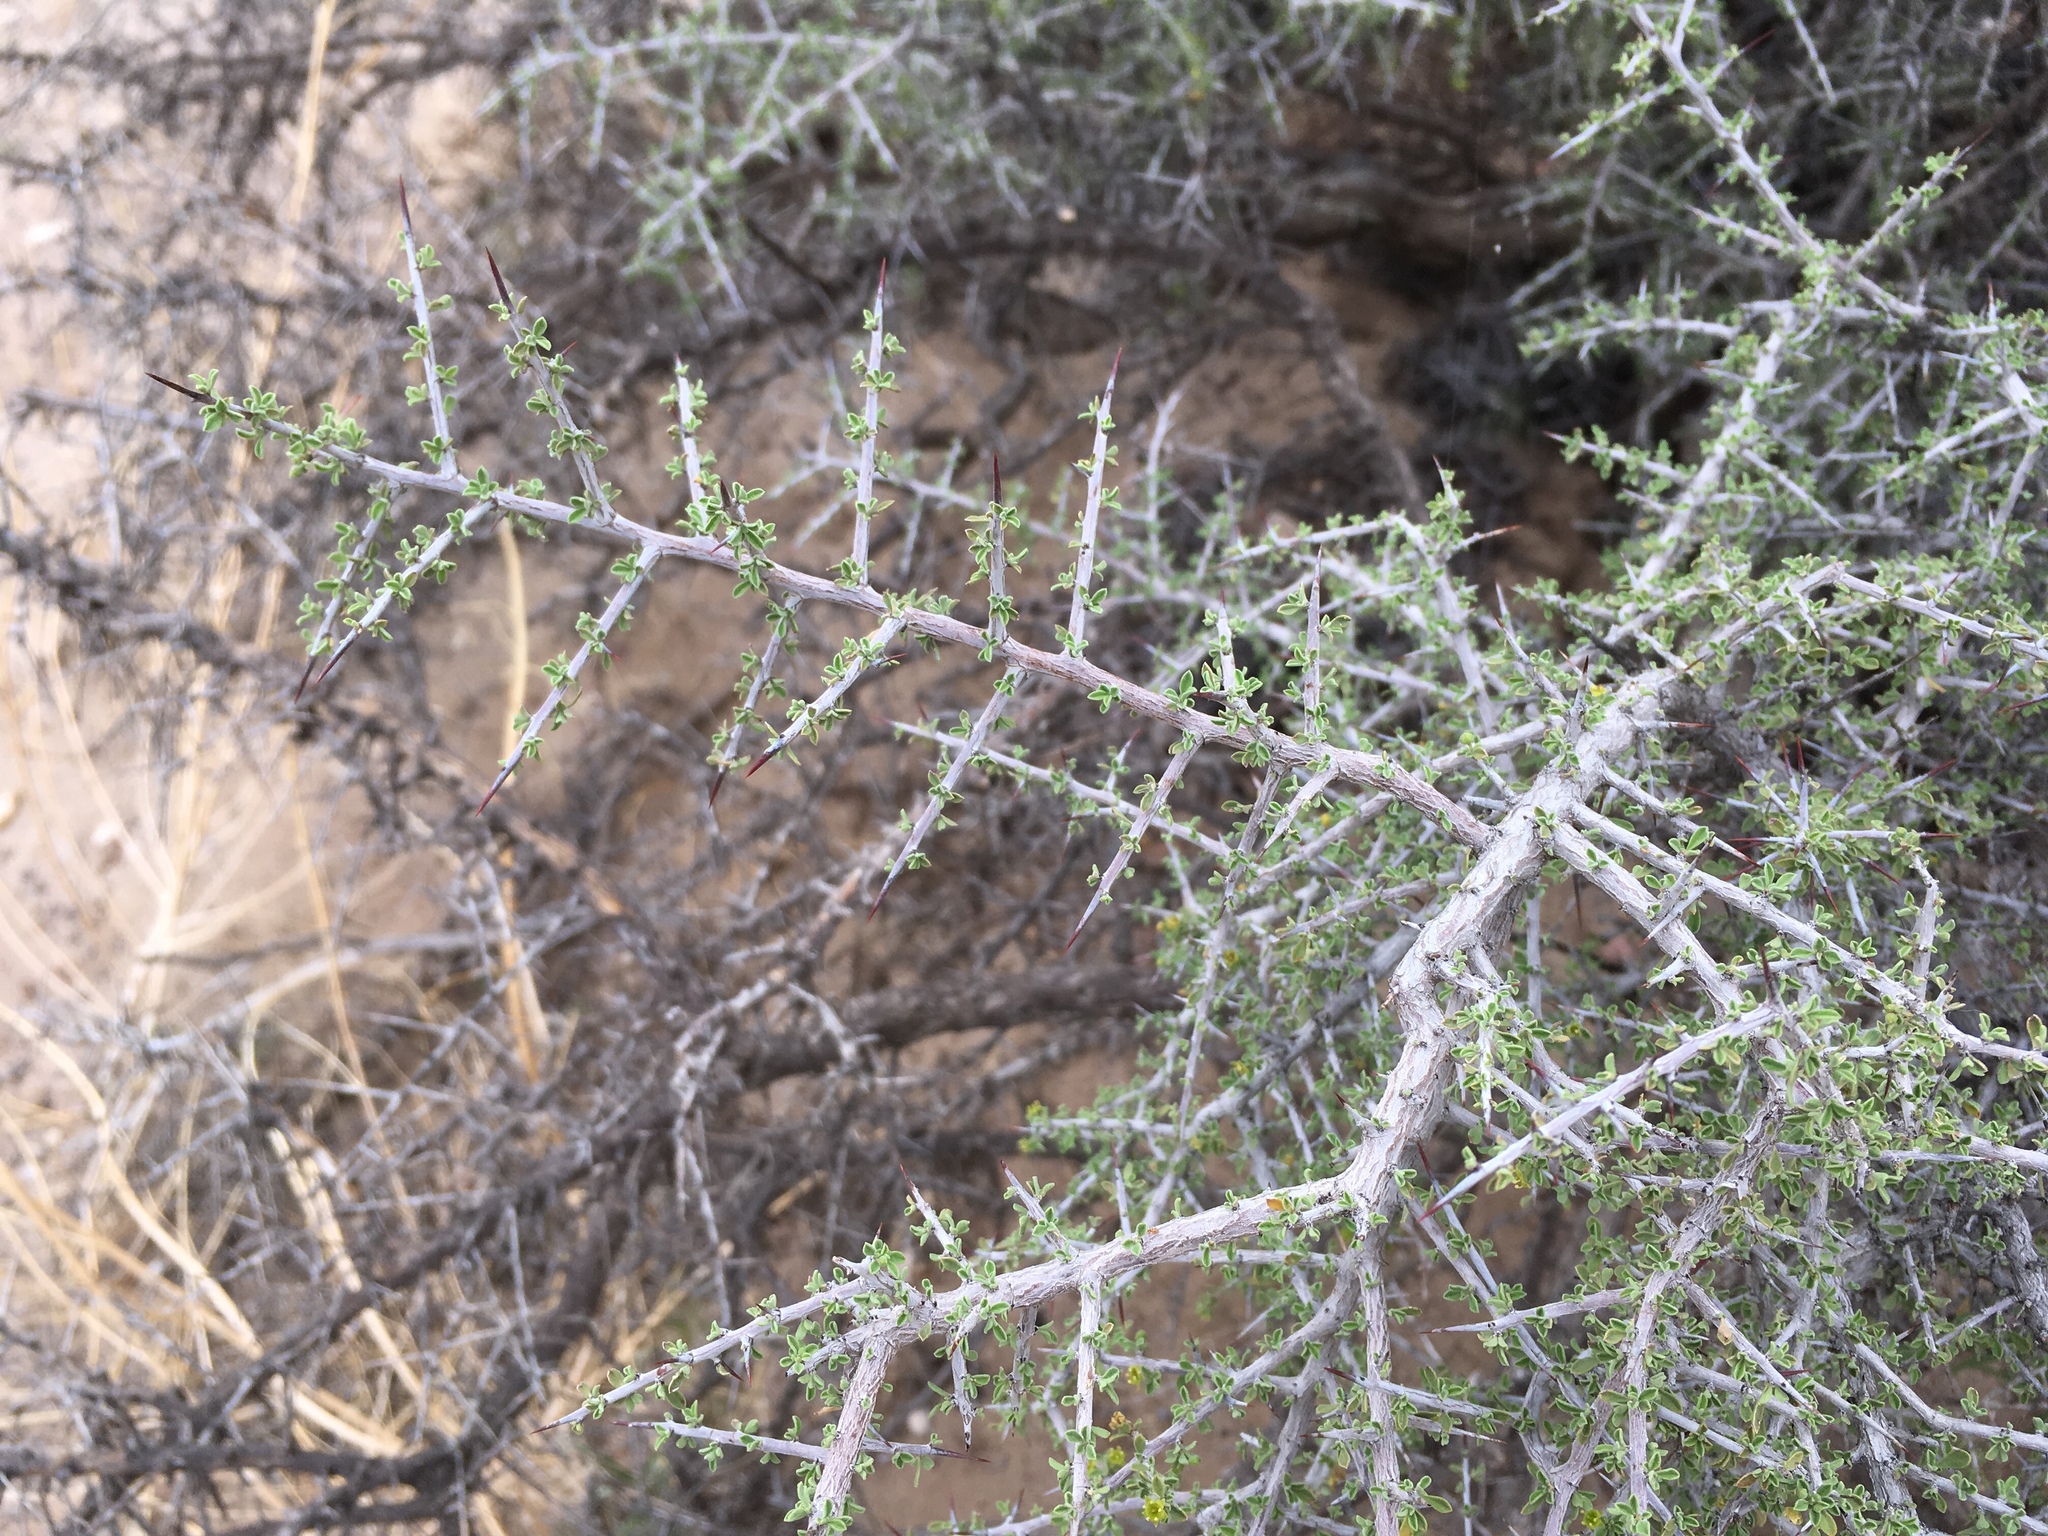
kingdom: Plantae
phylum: Tracheophyta
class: Magnoliopsida
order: Rosales
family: Rhamnaceae
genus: Condalia
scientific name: Condalia warnockii
